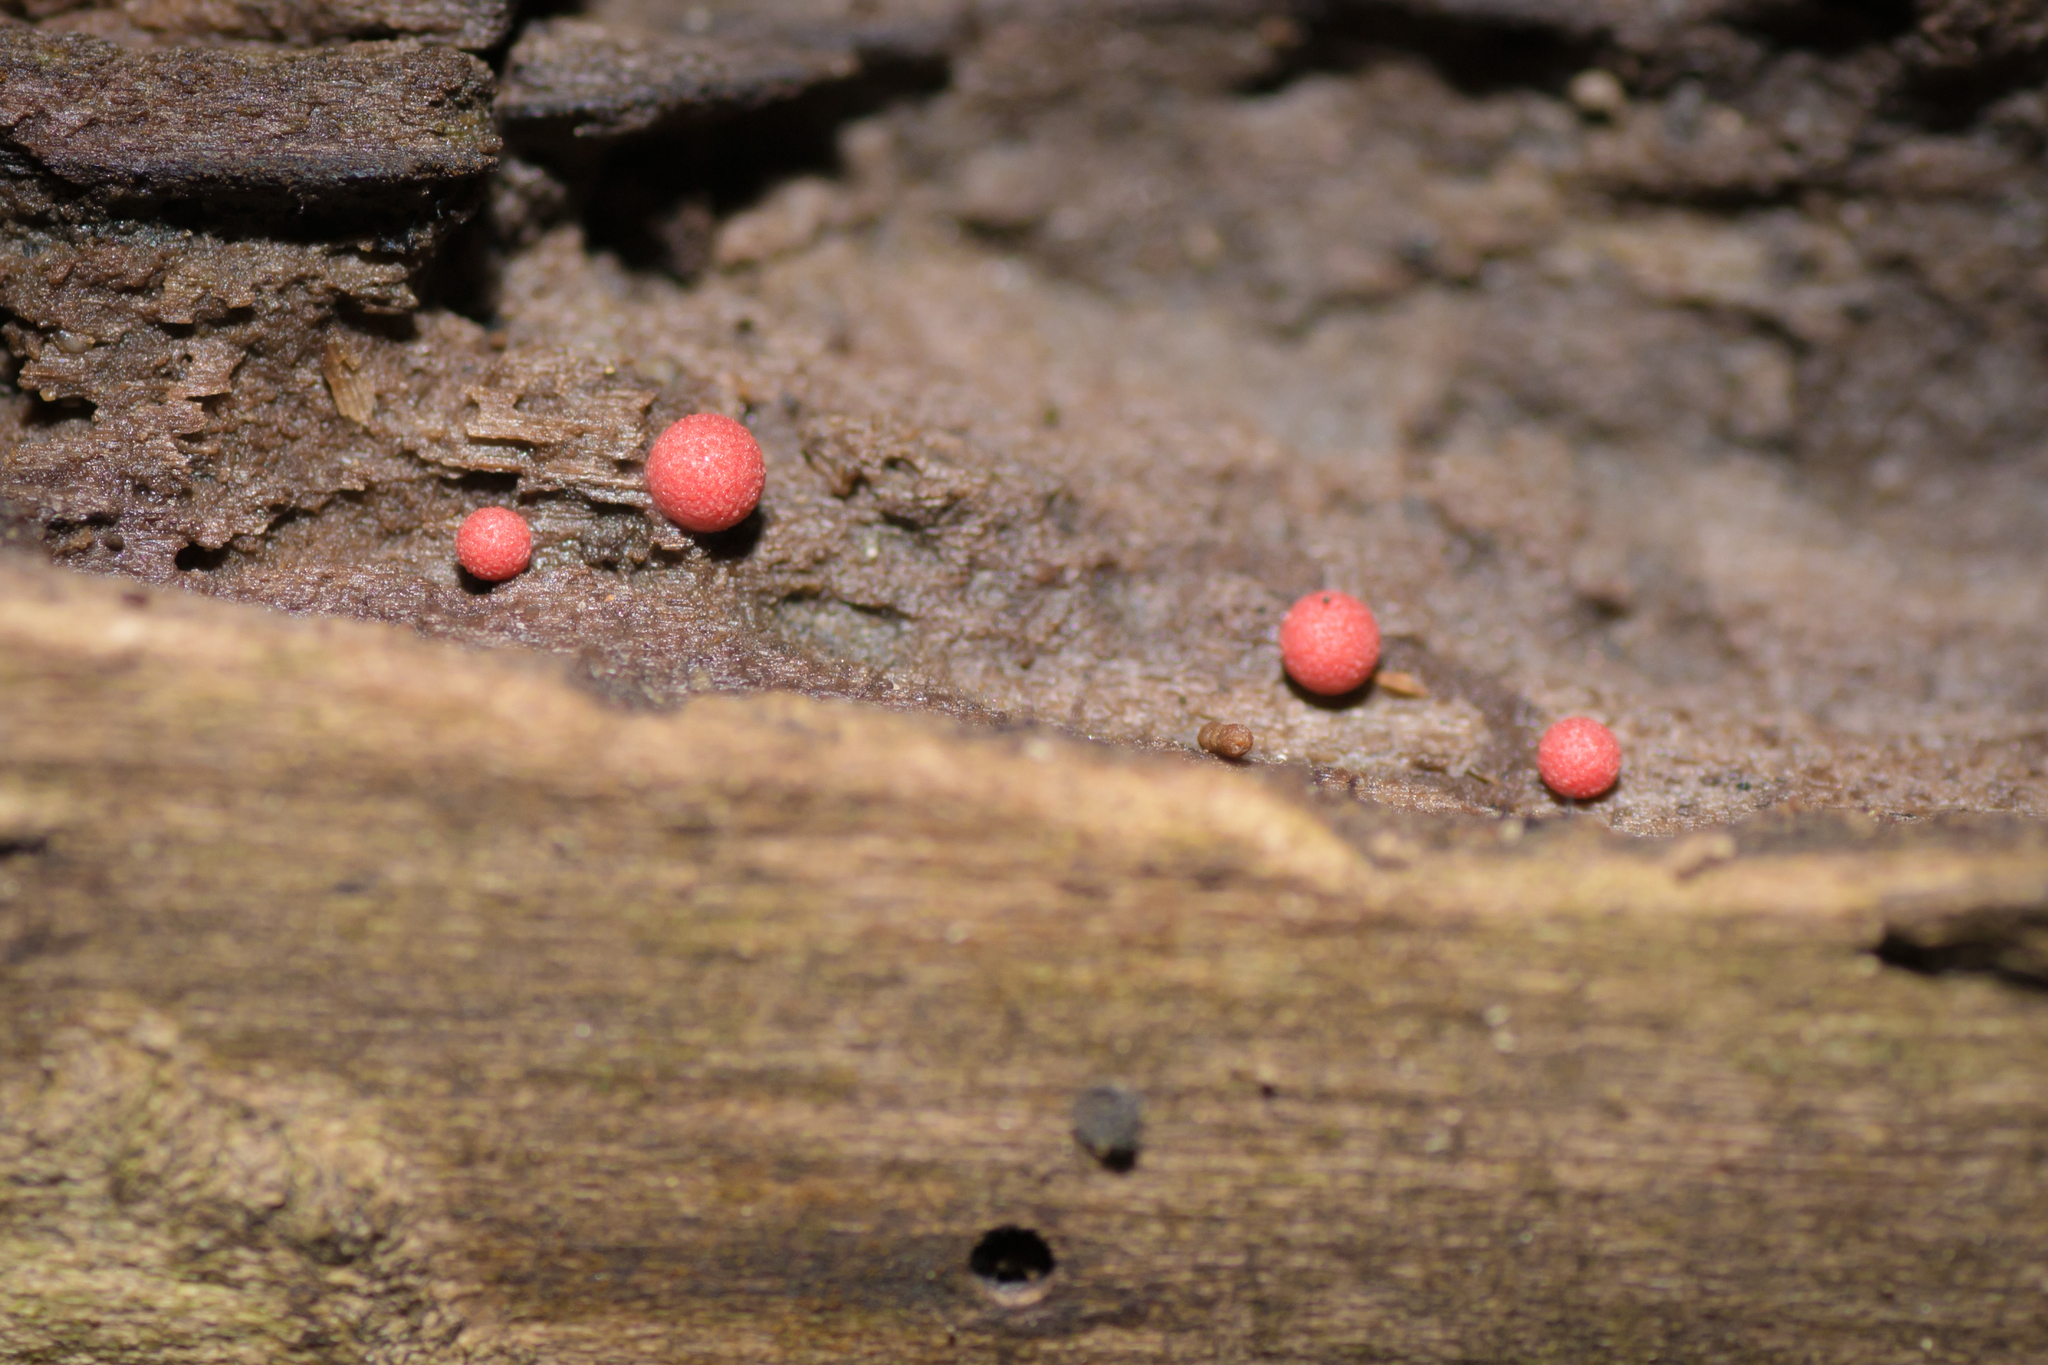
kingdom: Protozoa
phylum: Mycetozoa
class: Myxomycetes
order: Cribrariales
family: Tubiferaceae
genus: Lycogala
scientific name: Lycogala epidendrum
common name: Wolf's milk
